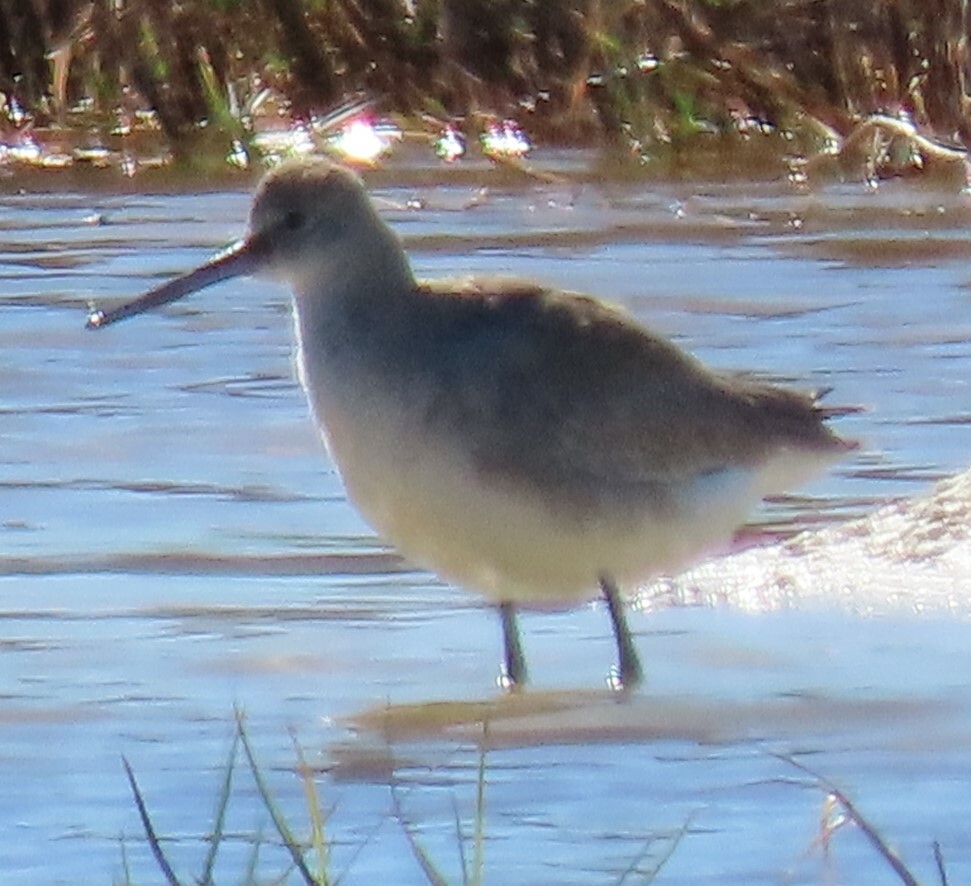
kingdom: Animalia
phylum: Chordata
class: Aves
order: Charadriiformes
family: Scolopacidae
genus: Tringa
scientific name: Tringa semipalmata
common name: Willet
